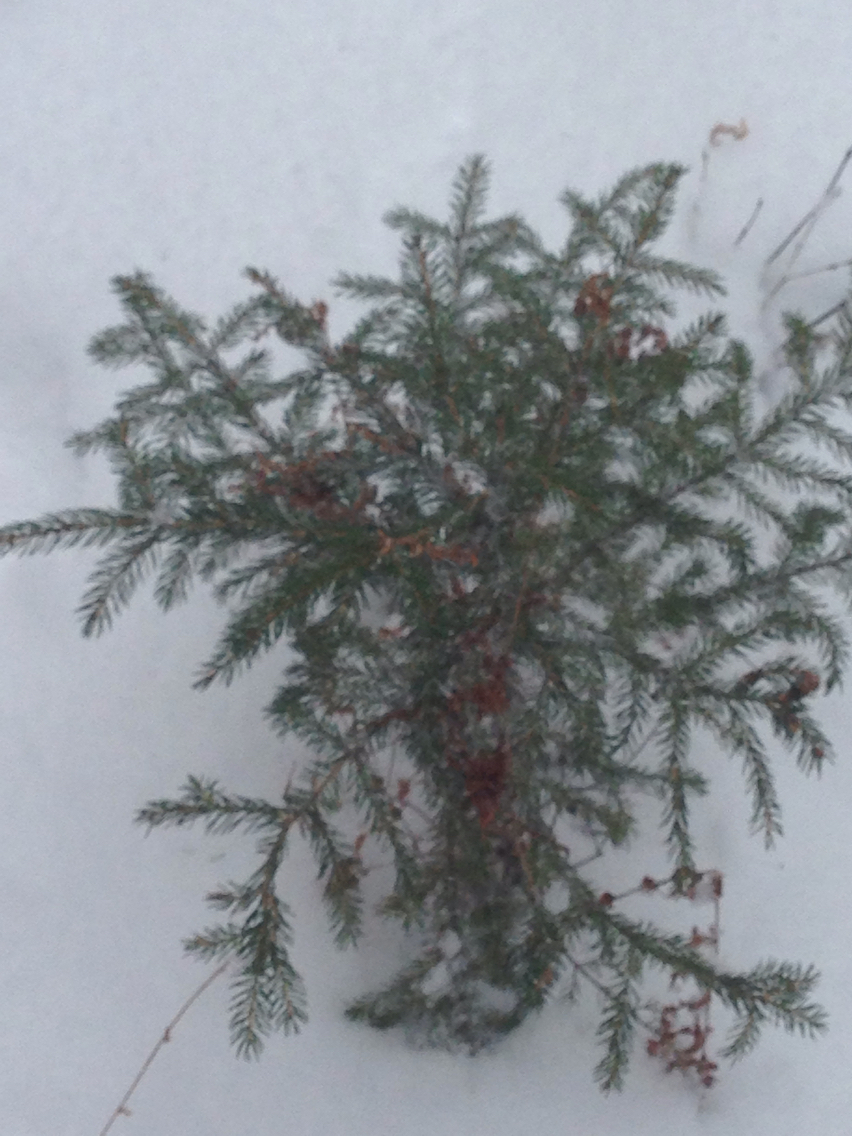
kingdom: Plantae
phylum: Tracheophyta
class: Pinopsida
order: Pinales
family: Pinaceae
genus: Picea
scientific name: Picea rubens
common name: Red spruce
